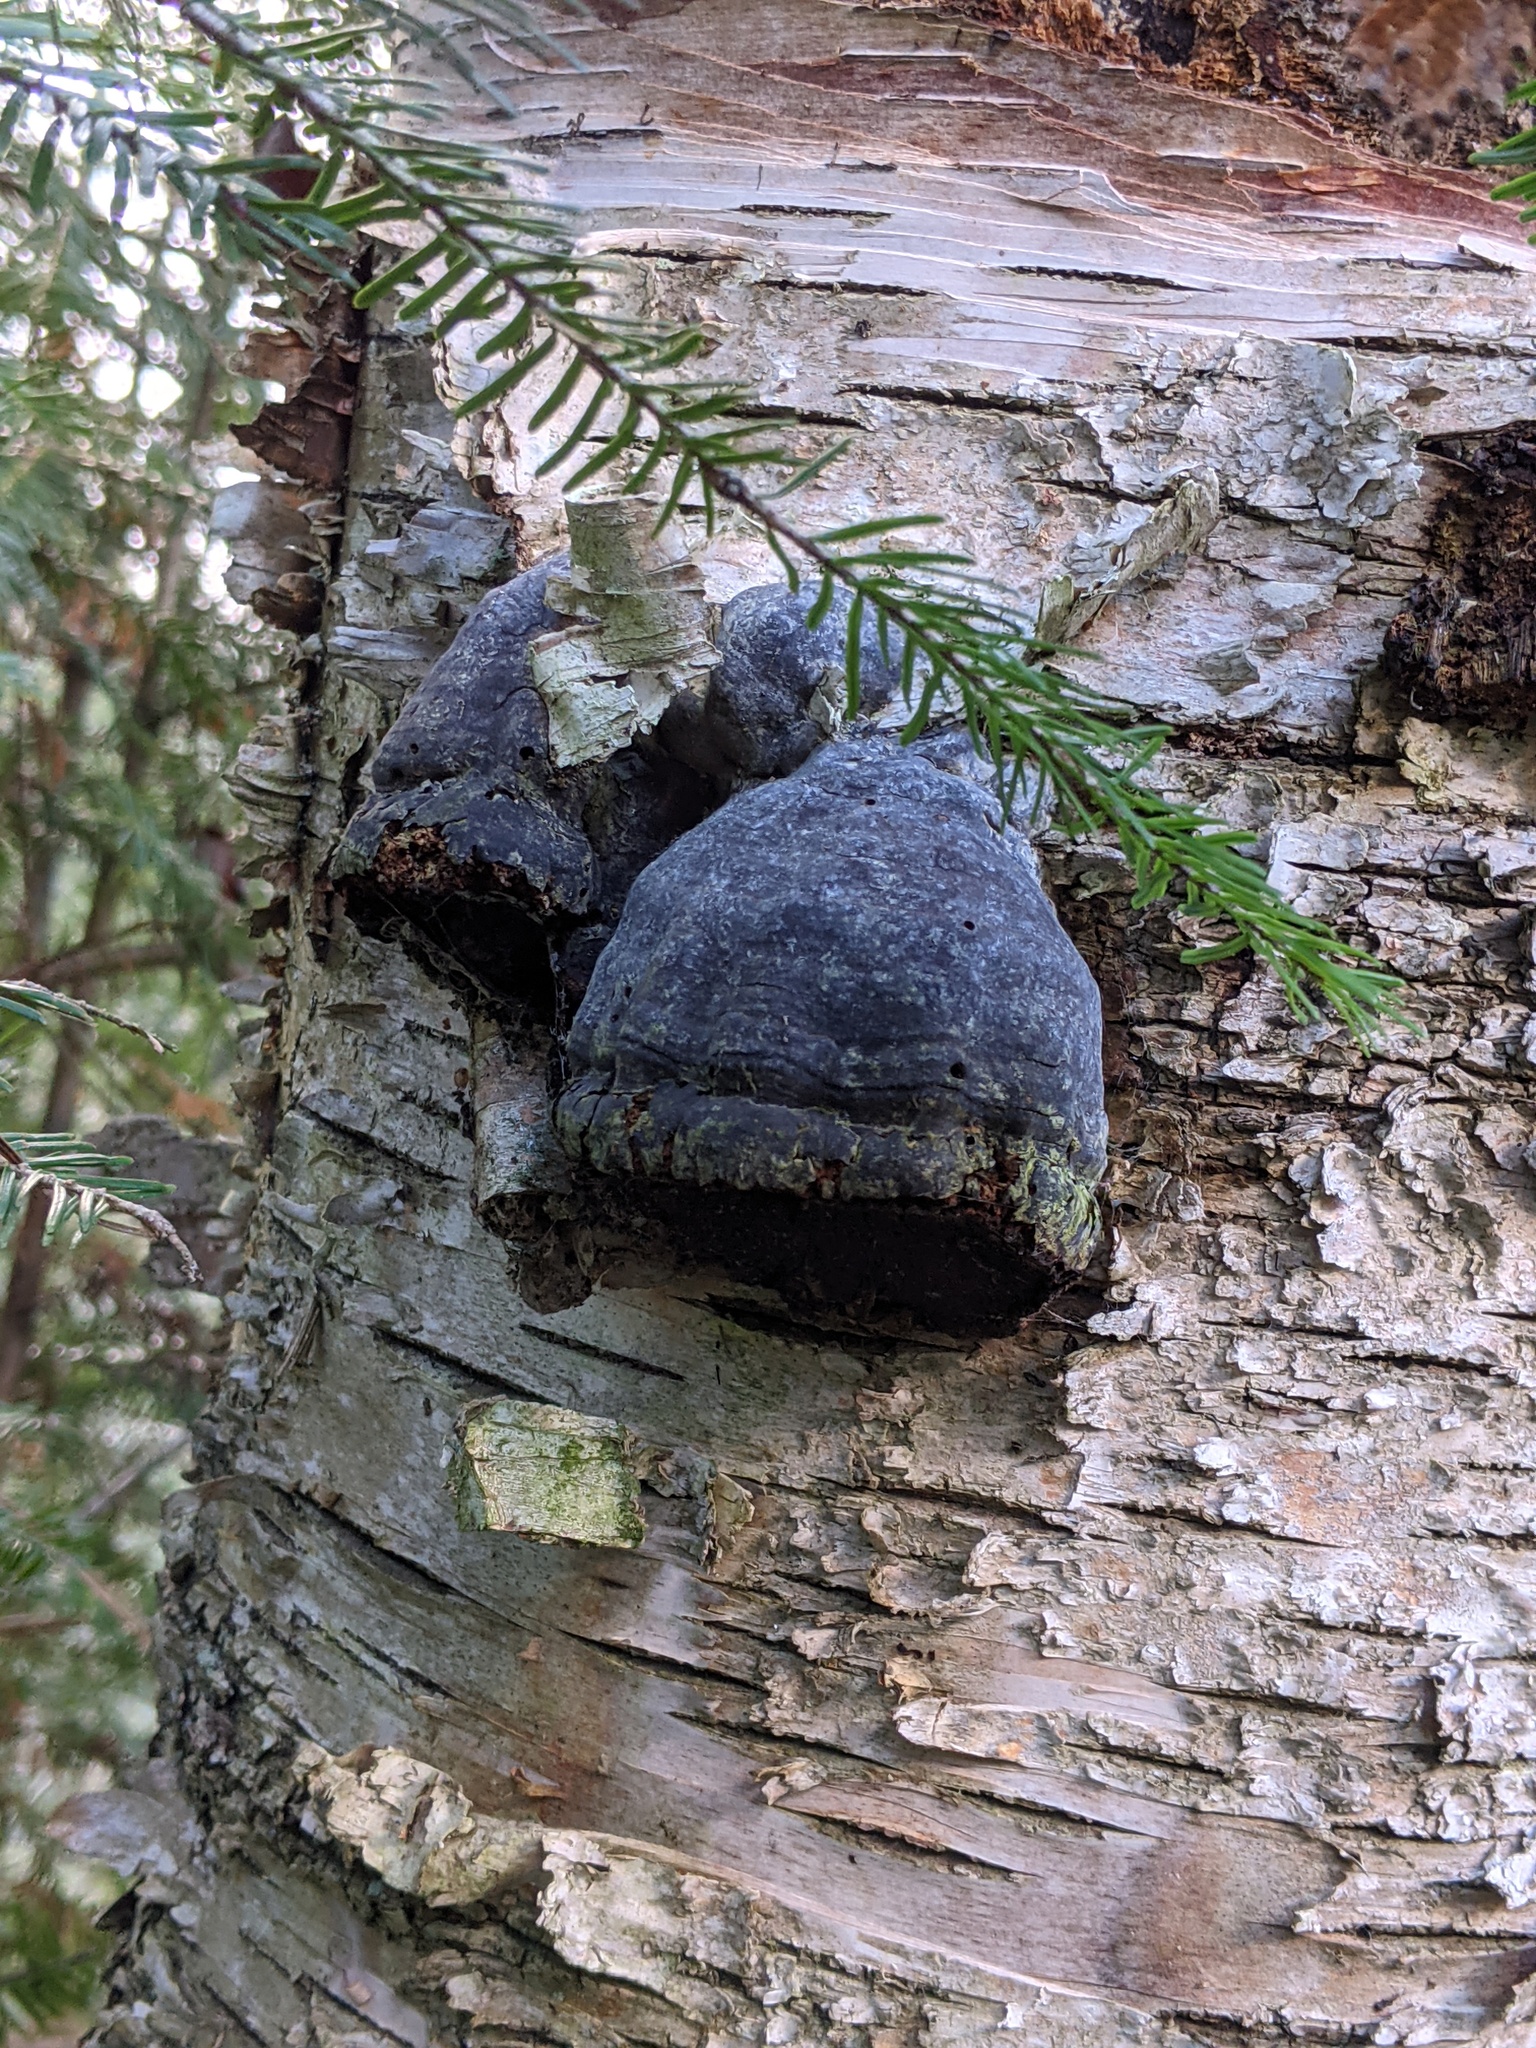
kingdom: Fungi
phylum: Basidiomycota
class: Agaricomycetes
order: Polyporales
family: Polyporaceae
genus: Fomes
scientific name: Fomes fomentarius
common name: Hoof fungus
